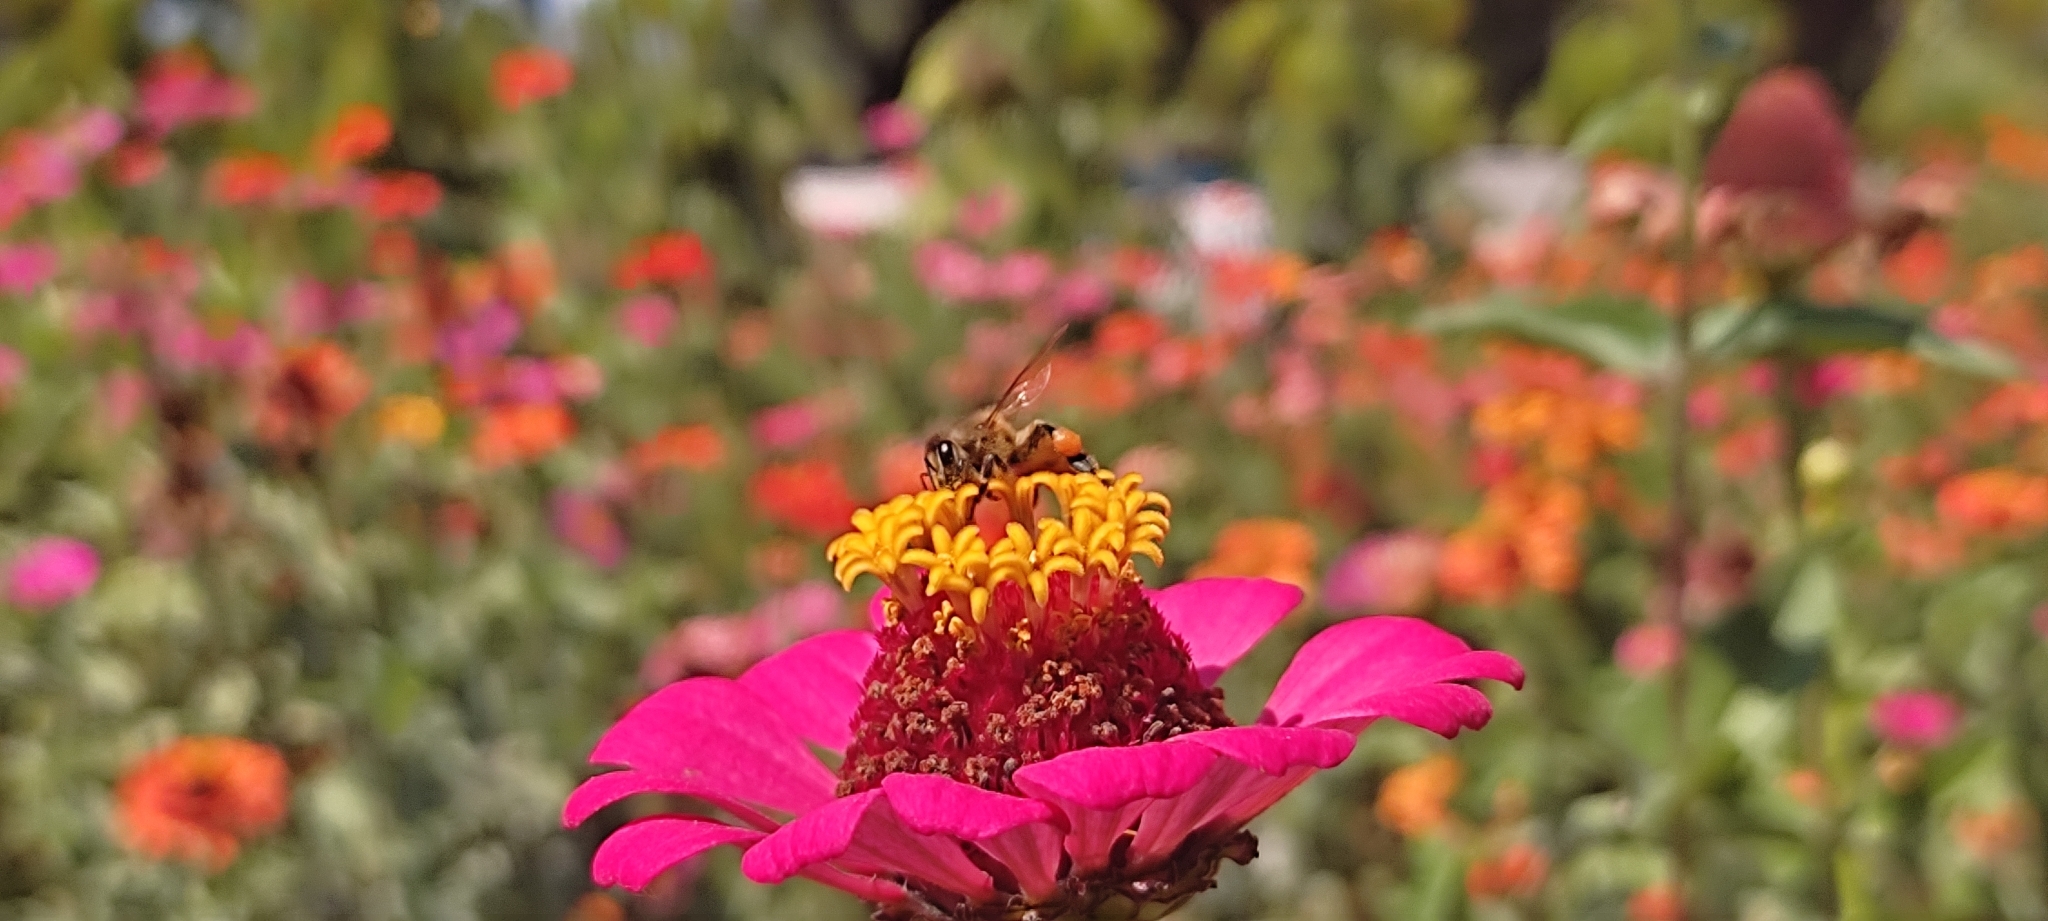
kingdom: Animalia
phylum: Arthropoda
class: Insecta
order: Hymenoptera
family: Apidae
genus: Apis
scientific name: Apis mellifera
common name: Honey bee
